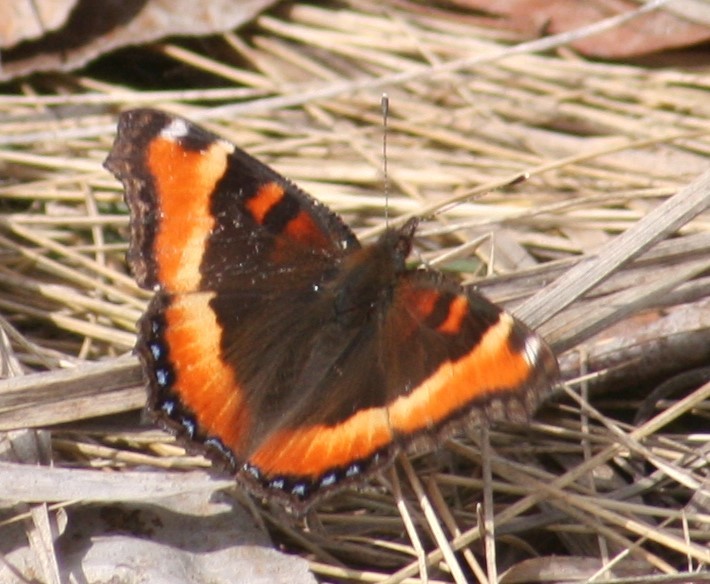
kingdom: Animalia
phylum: Arthropoda
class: Insecta
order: Lepidoptera
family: Nymphalidae
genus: Aglais
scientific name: Aglais milberti
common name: Milbert's tortoiseshell
